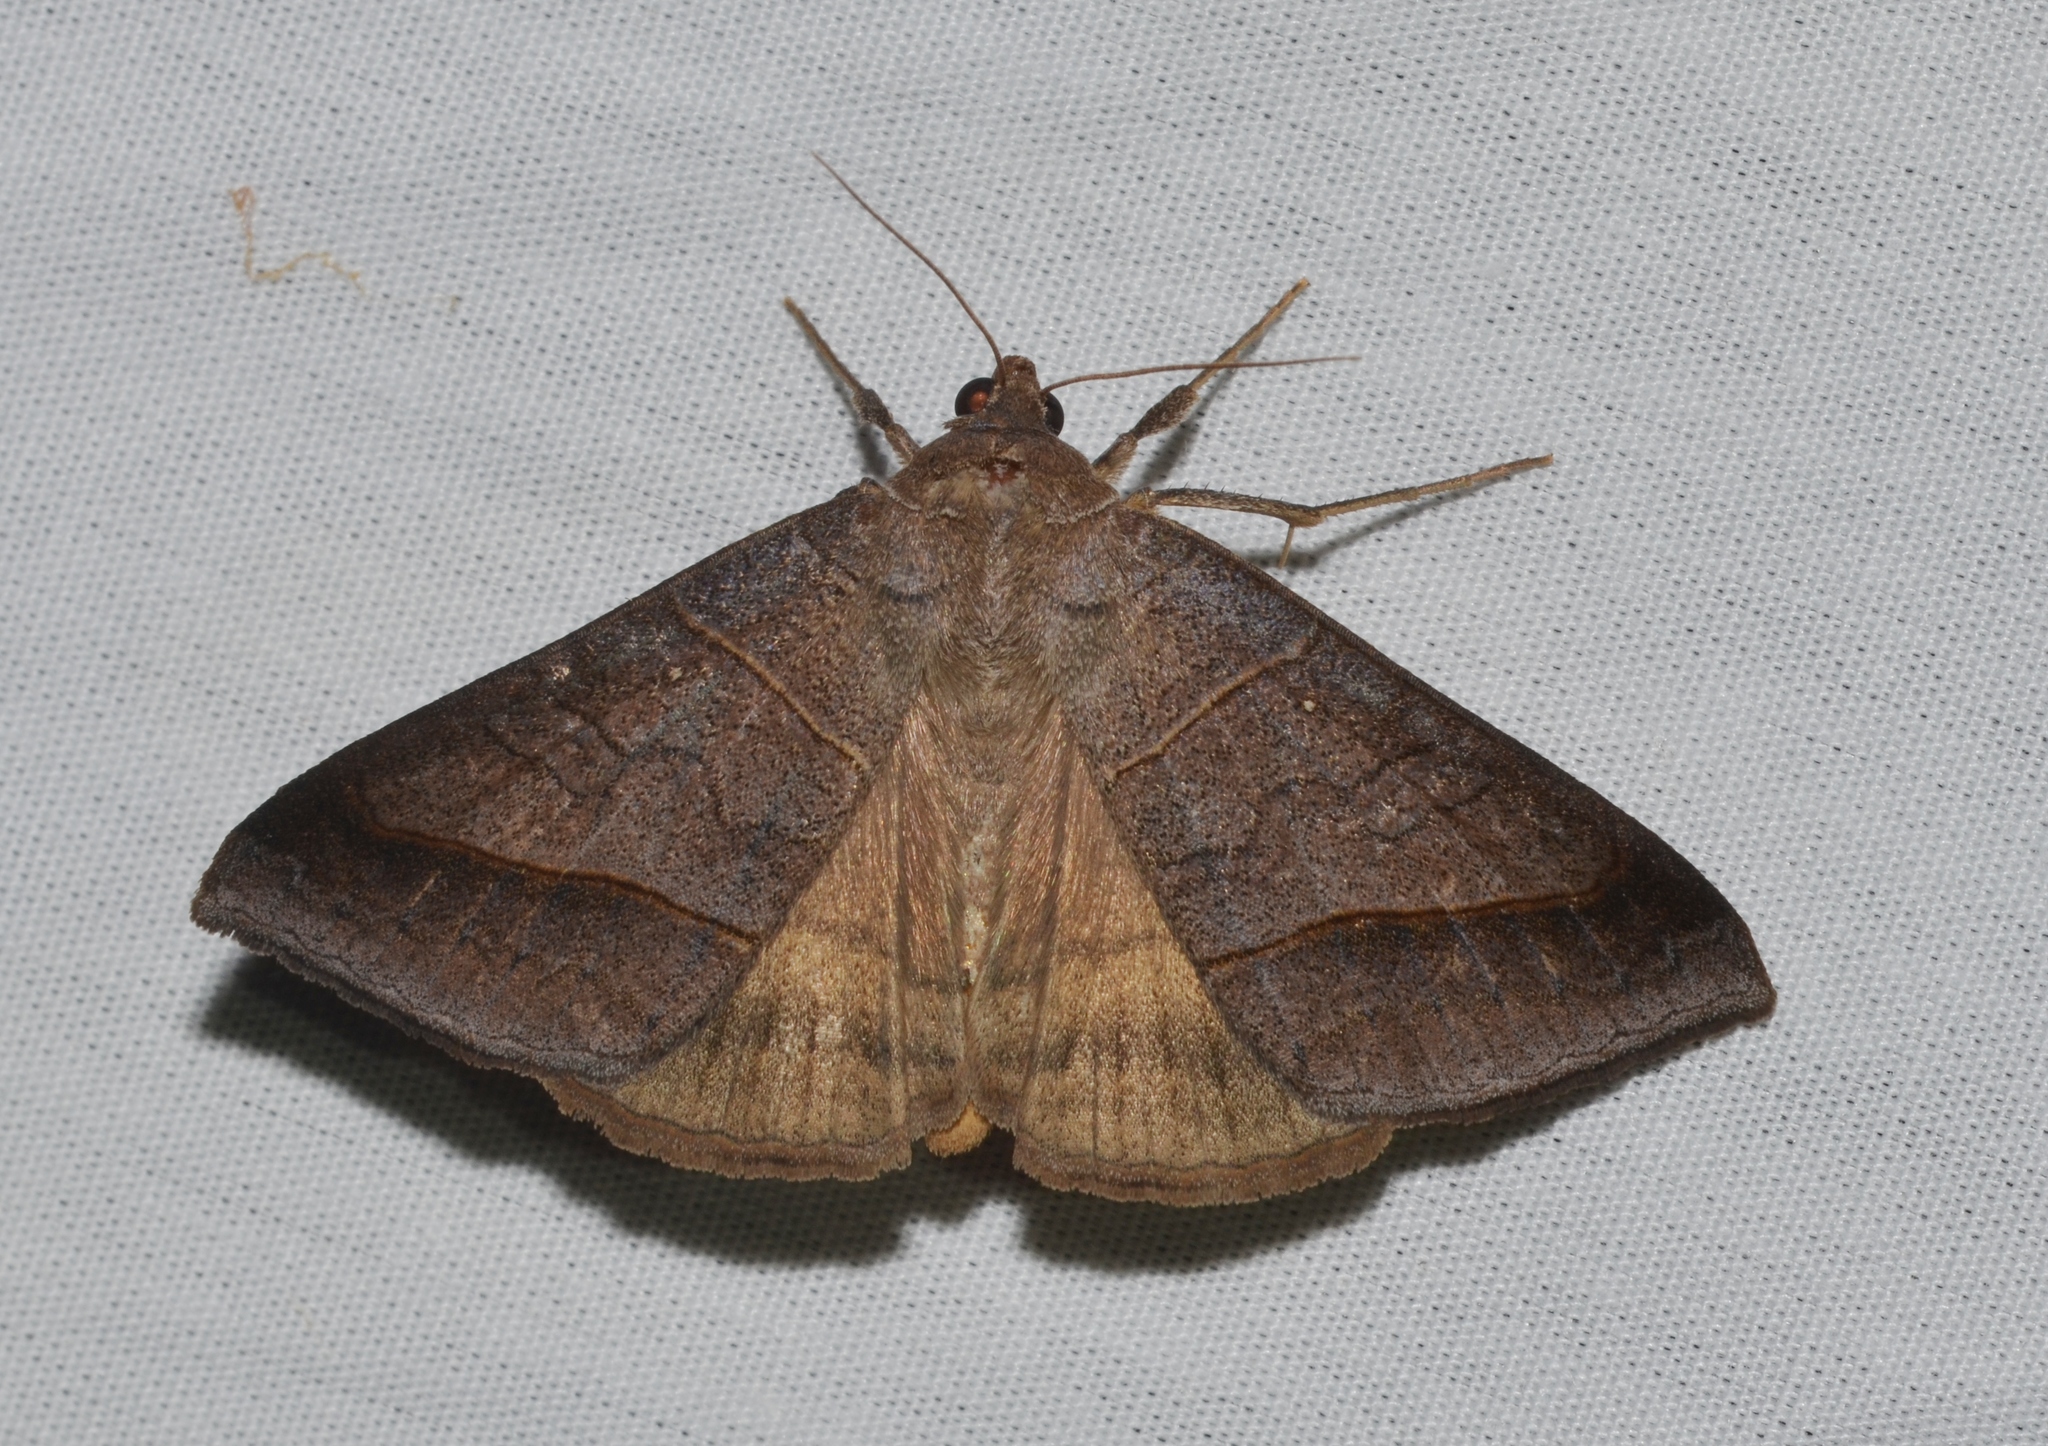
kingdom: Animalia
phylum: Arthropoda
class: Insecta
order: Lepidoptera
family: Erebidae
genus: Mocis
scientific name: Mocis texana
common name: Texas mocis moth
